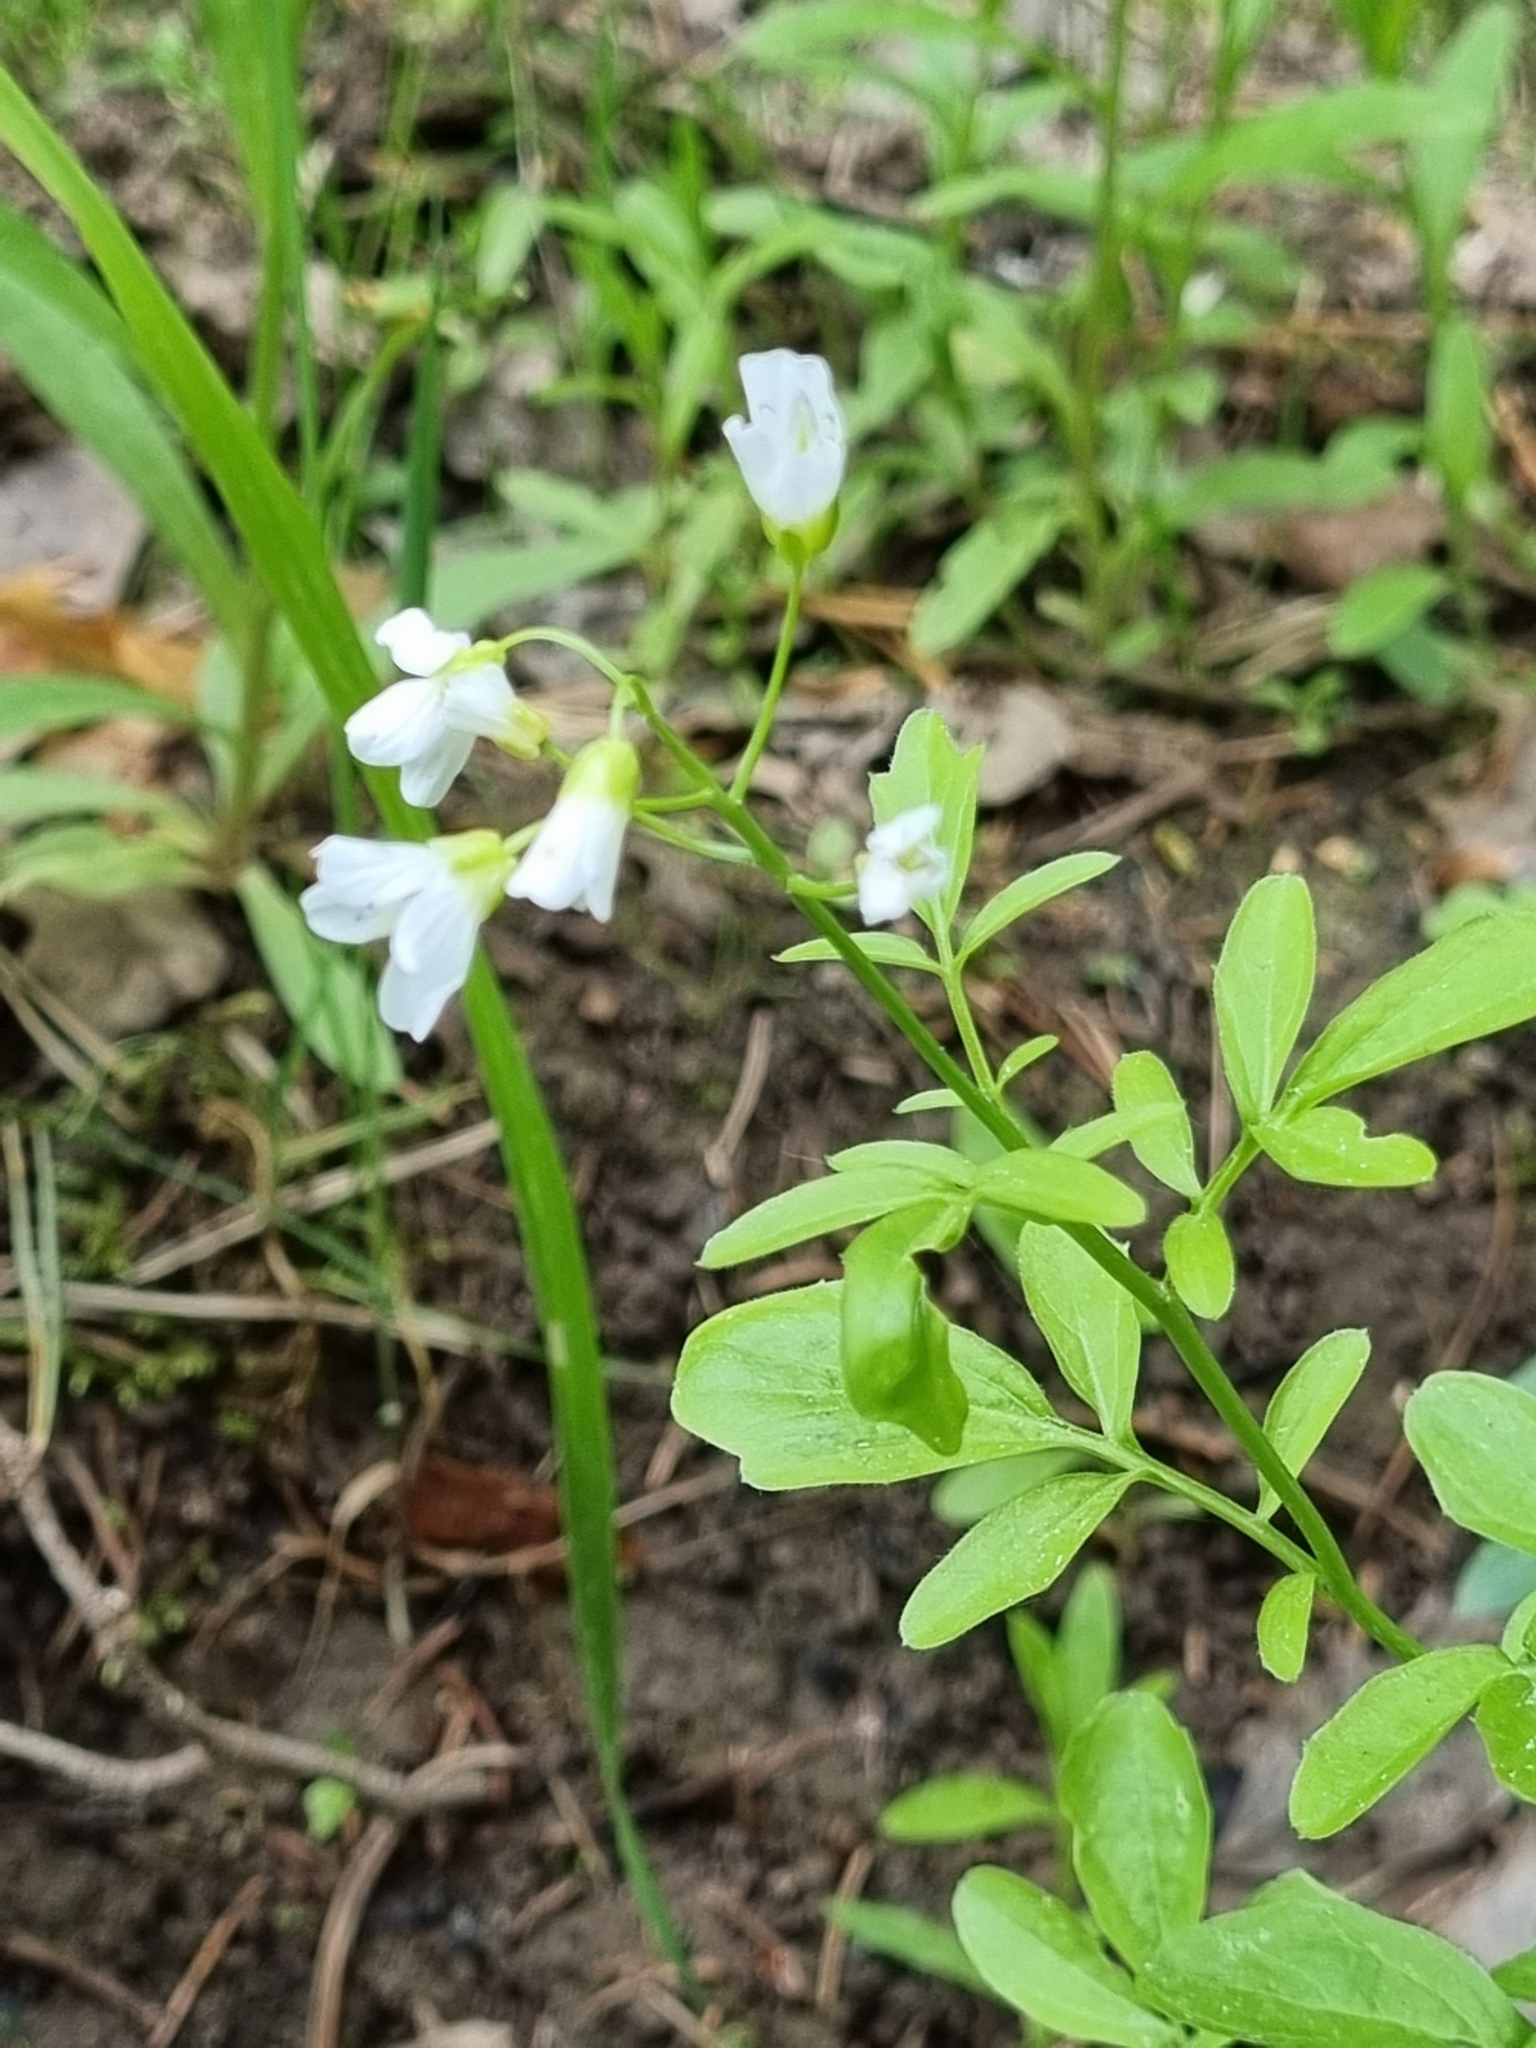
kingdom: Plantae
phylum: Tracheophyta
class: Magnoliopsida
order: Brassicales
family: Brassicaceae
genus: Cardamine
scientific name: Cardamine amara
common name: Large bitter-cress
